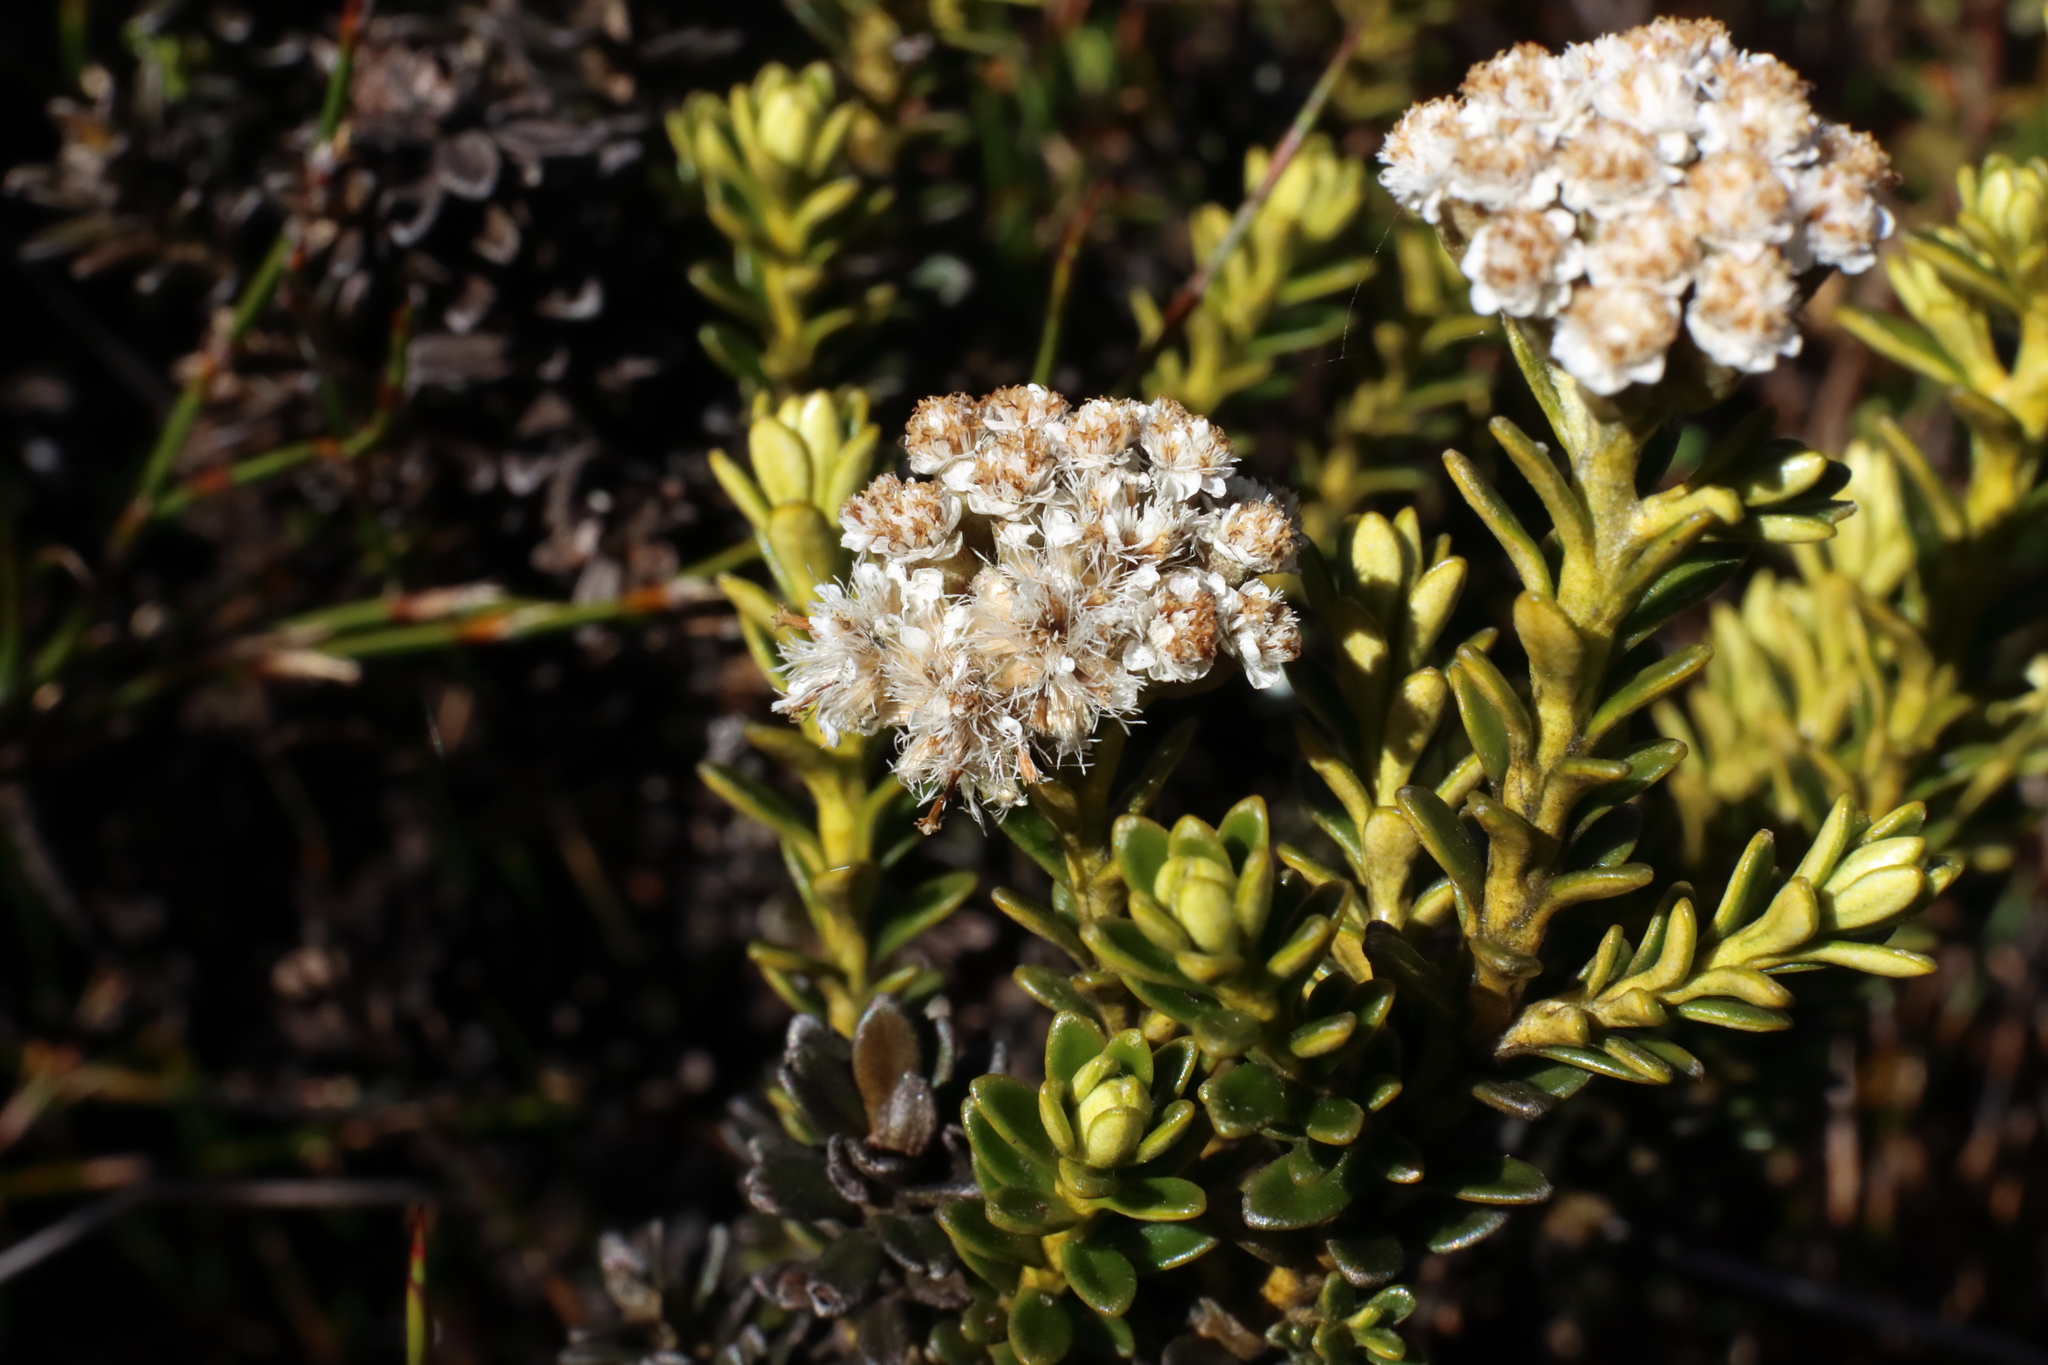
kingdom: Plantae
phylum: Tracheophyta
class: Magnoliopsida
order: Asterales
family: Asteraceae
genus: Ozothamnus
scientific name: Ozothamnus leptophyllus
